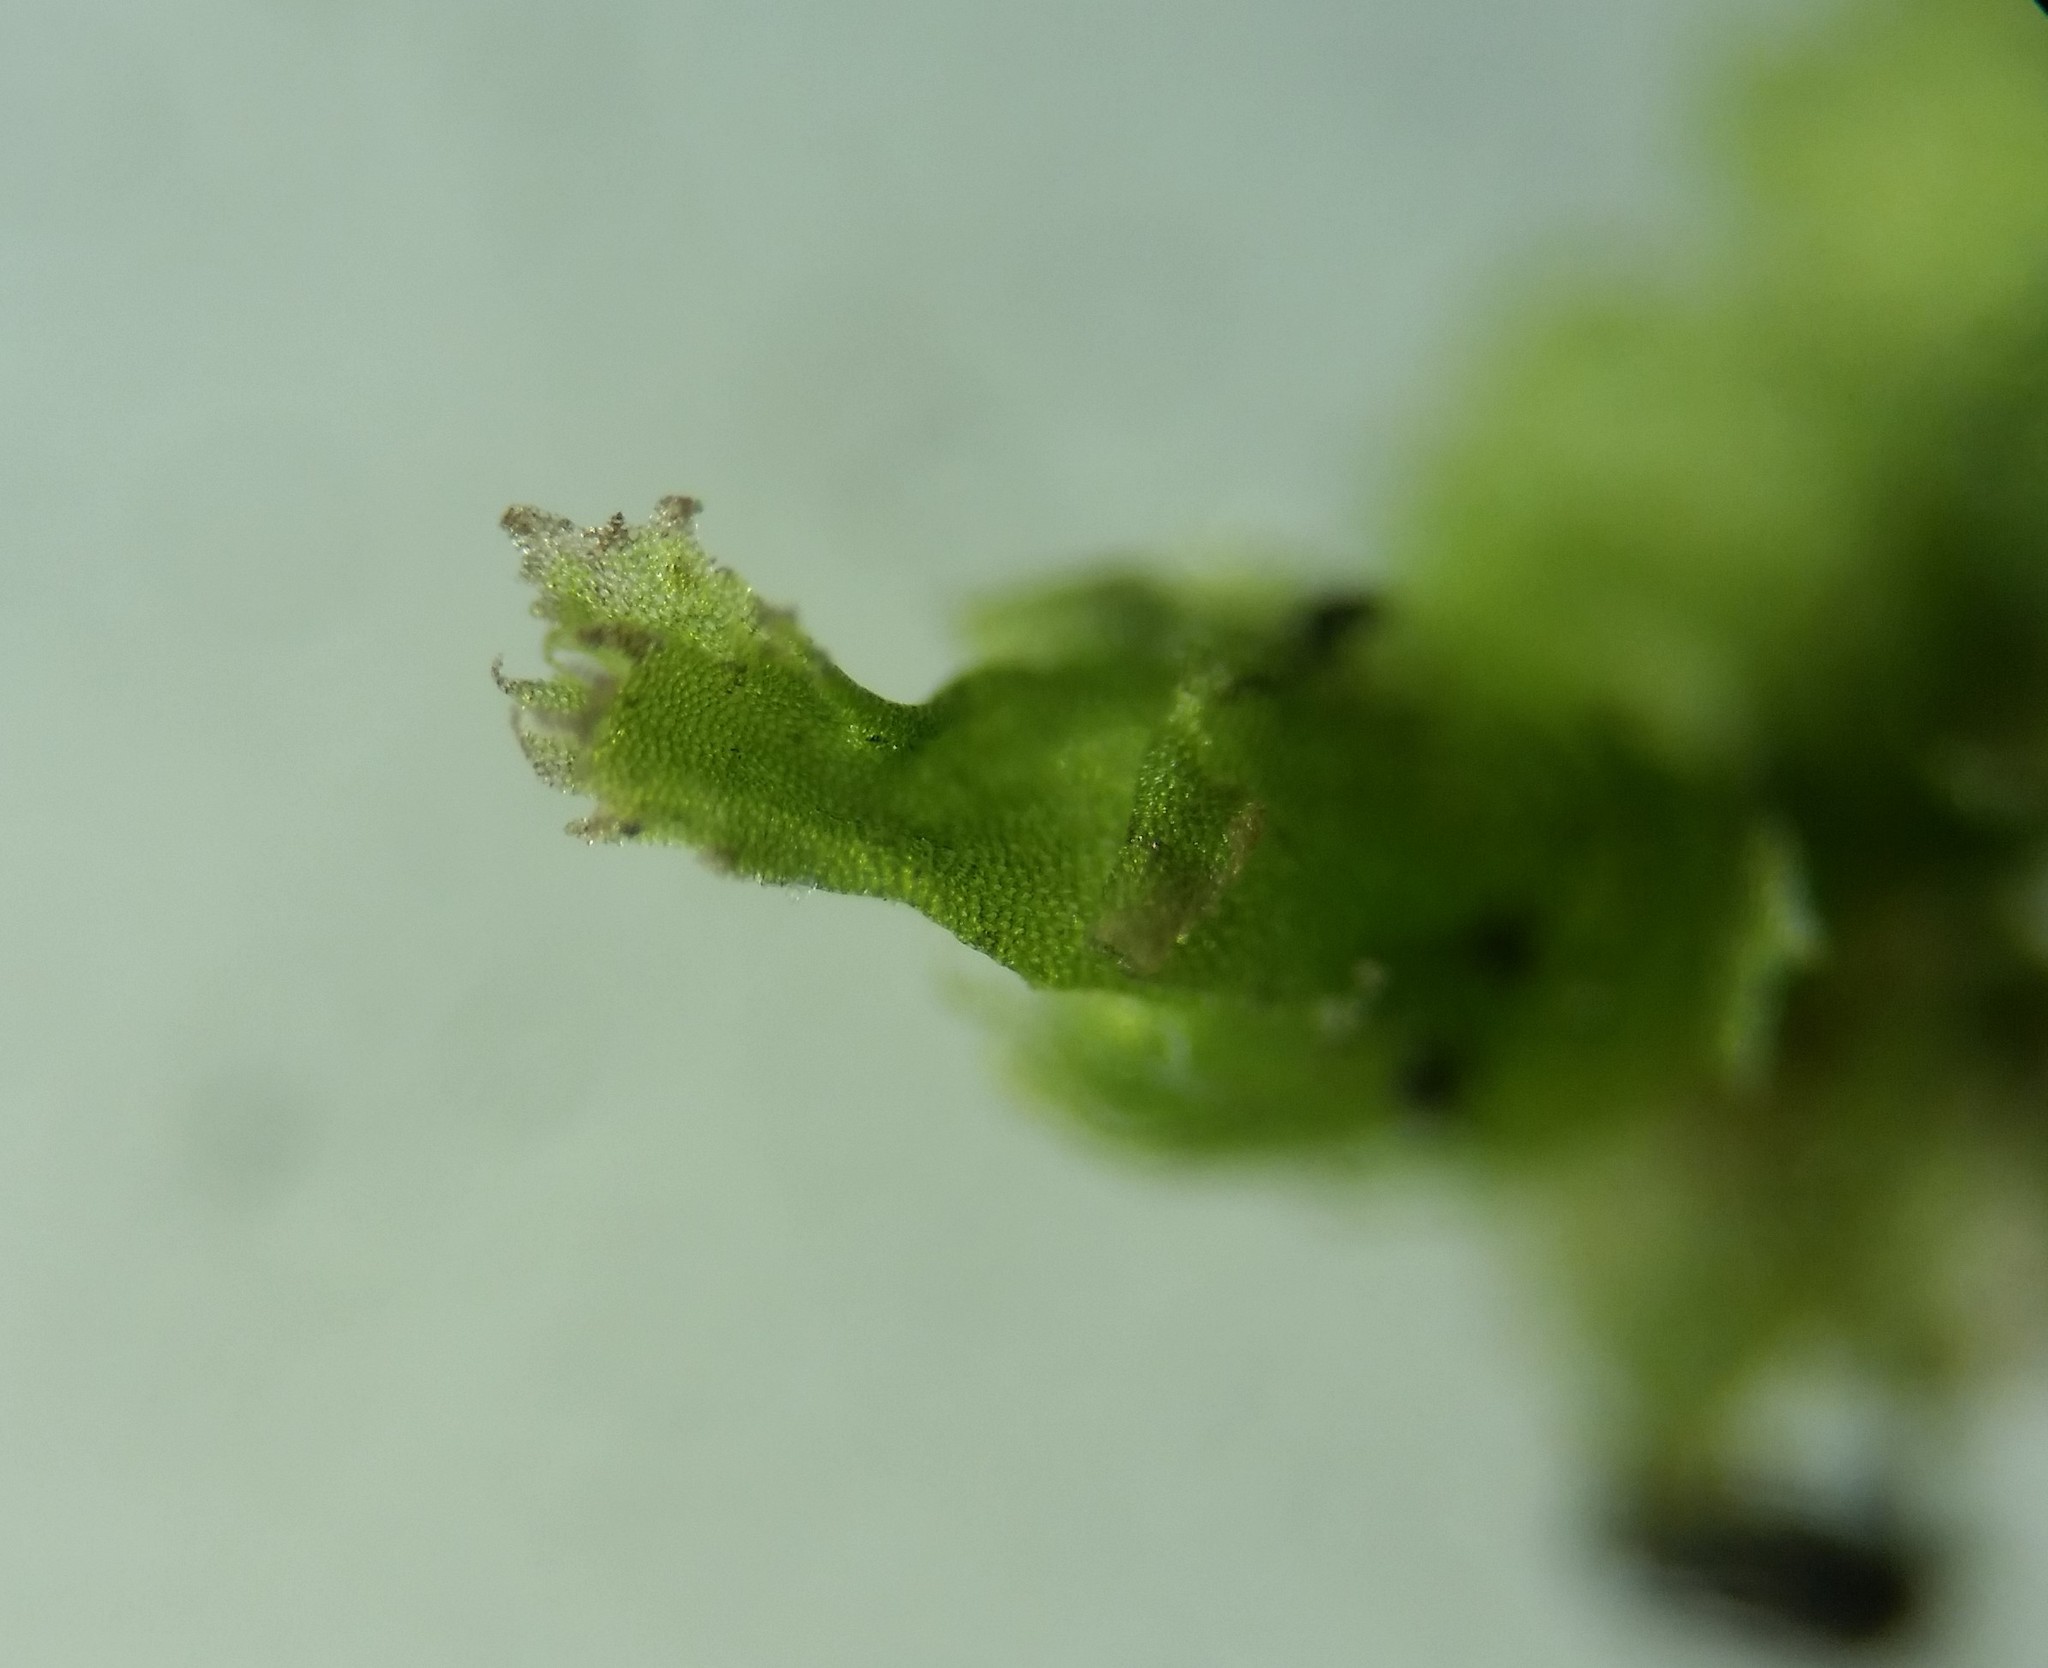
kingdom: Plantae
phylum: Marchantiophyta
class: Jungermanniopsida
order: Jungermanniales
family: Lophocoleaceae
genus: Lophocolea
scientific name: Lophocolea minor
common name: Lesser crestwort
